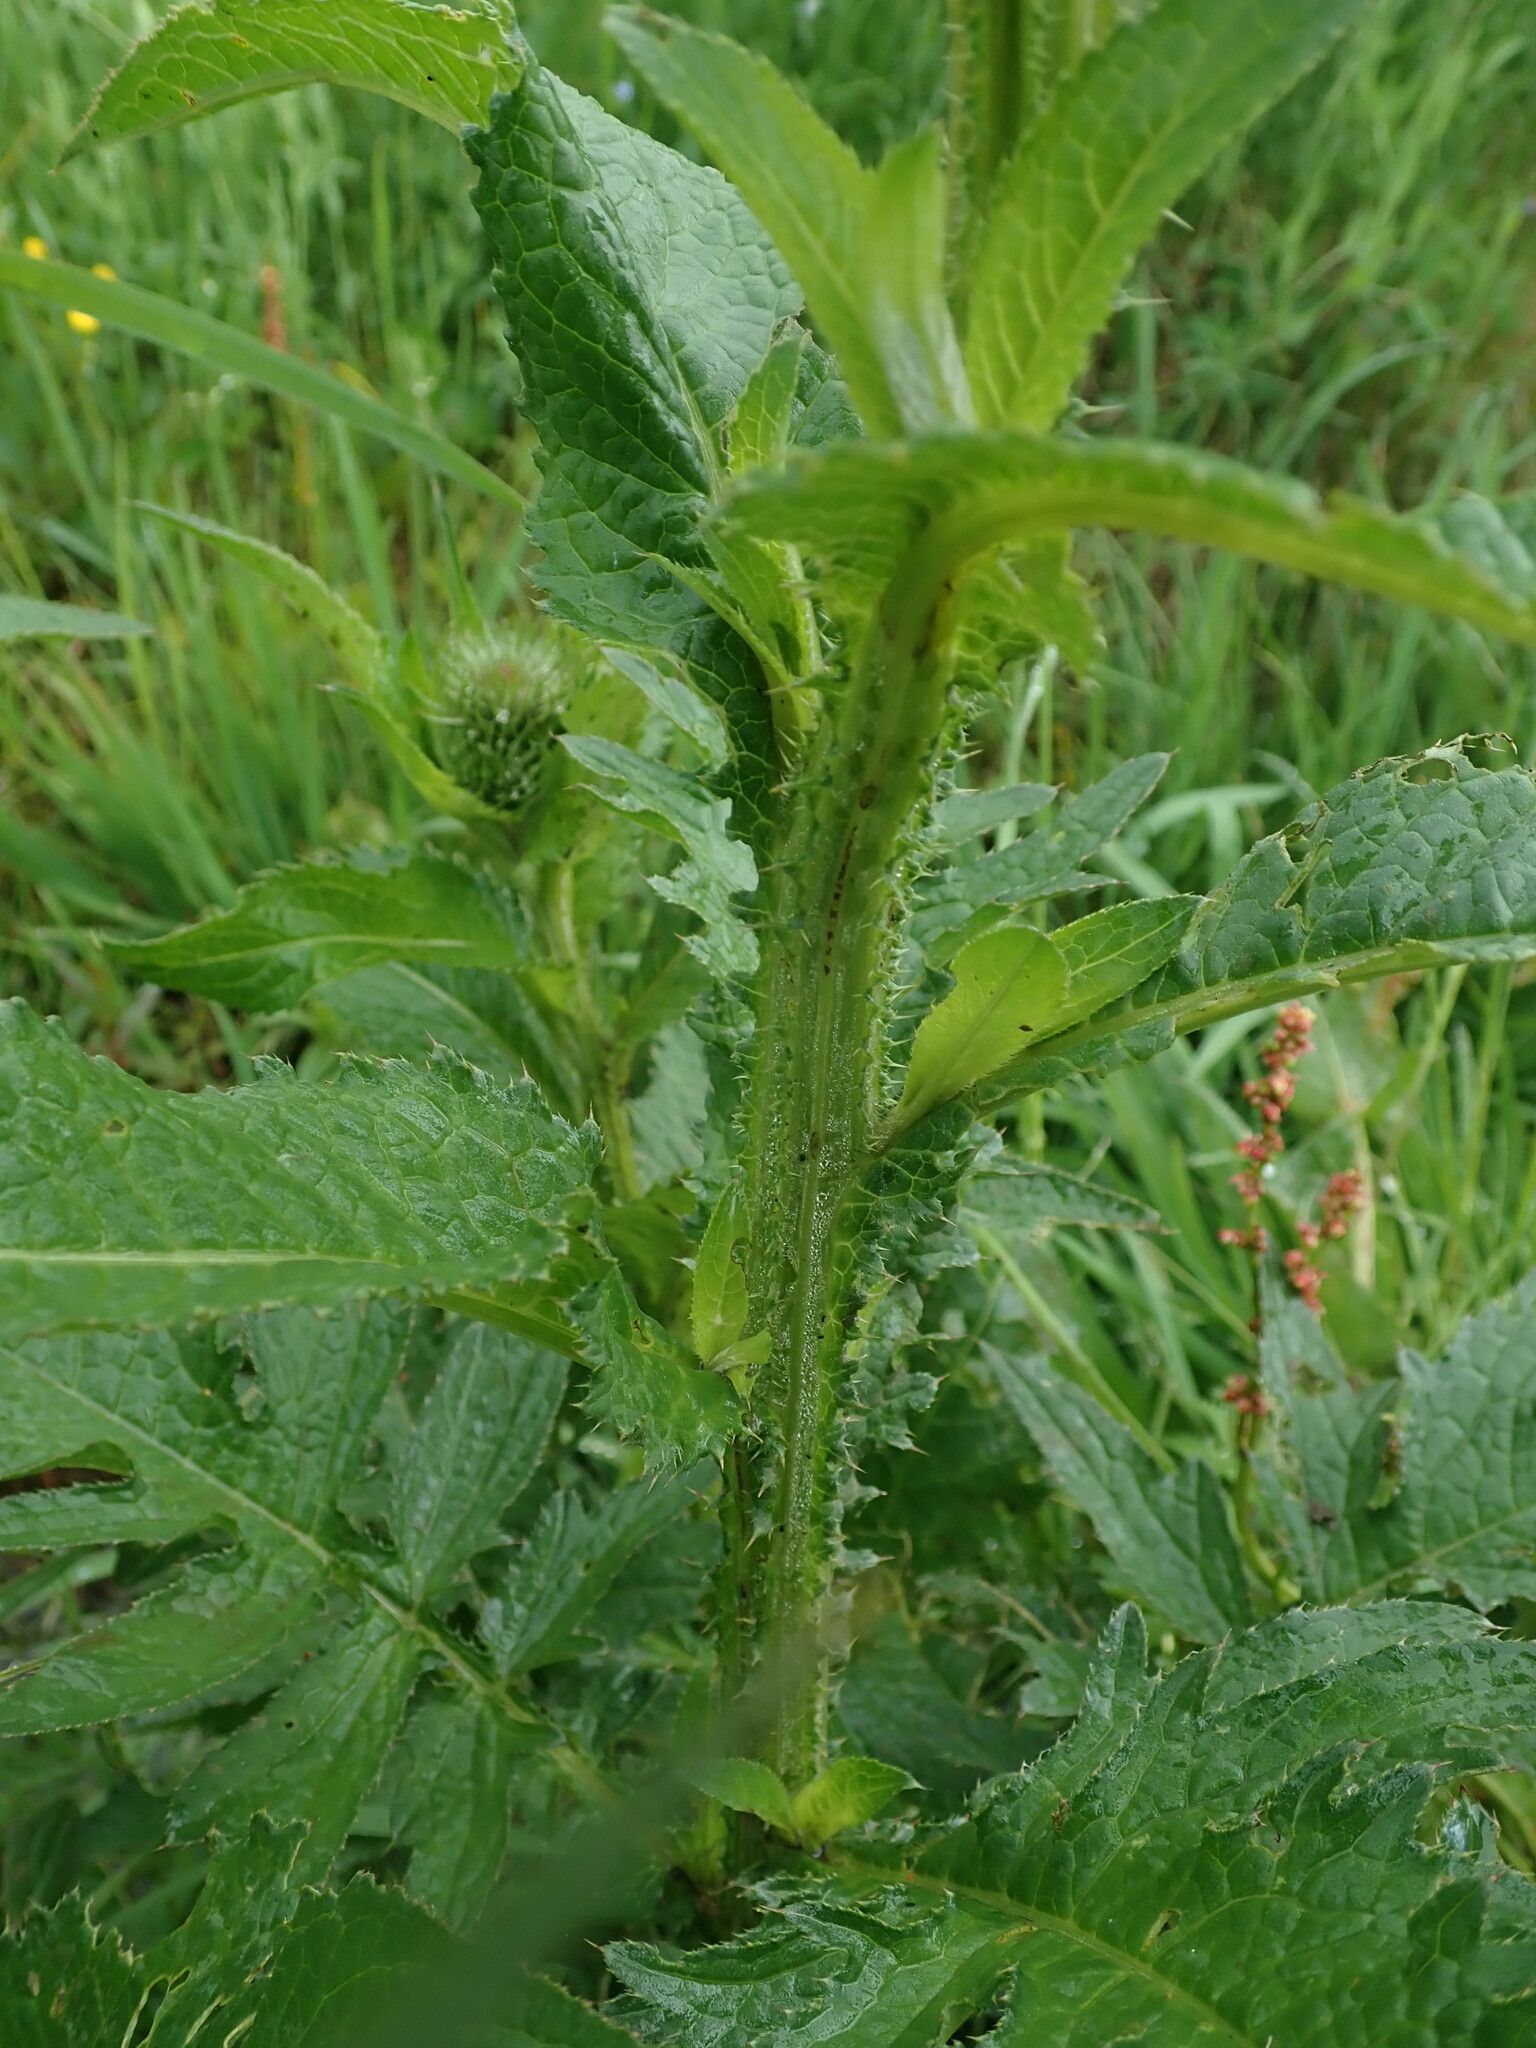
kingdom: Plantae
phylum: Tracheophyta
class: Magnoliopsida
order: Asterales
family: Asteraceae
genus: Carduus
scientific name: Carduus personata
